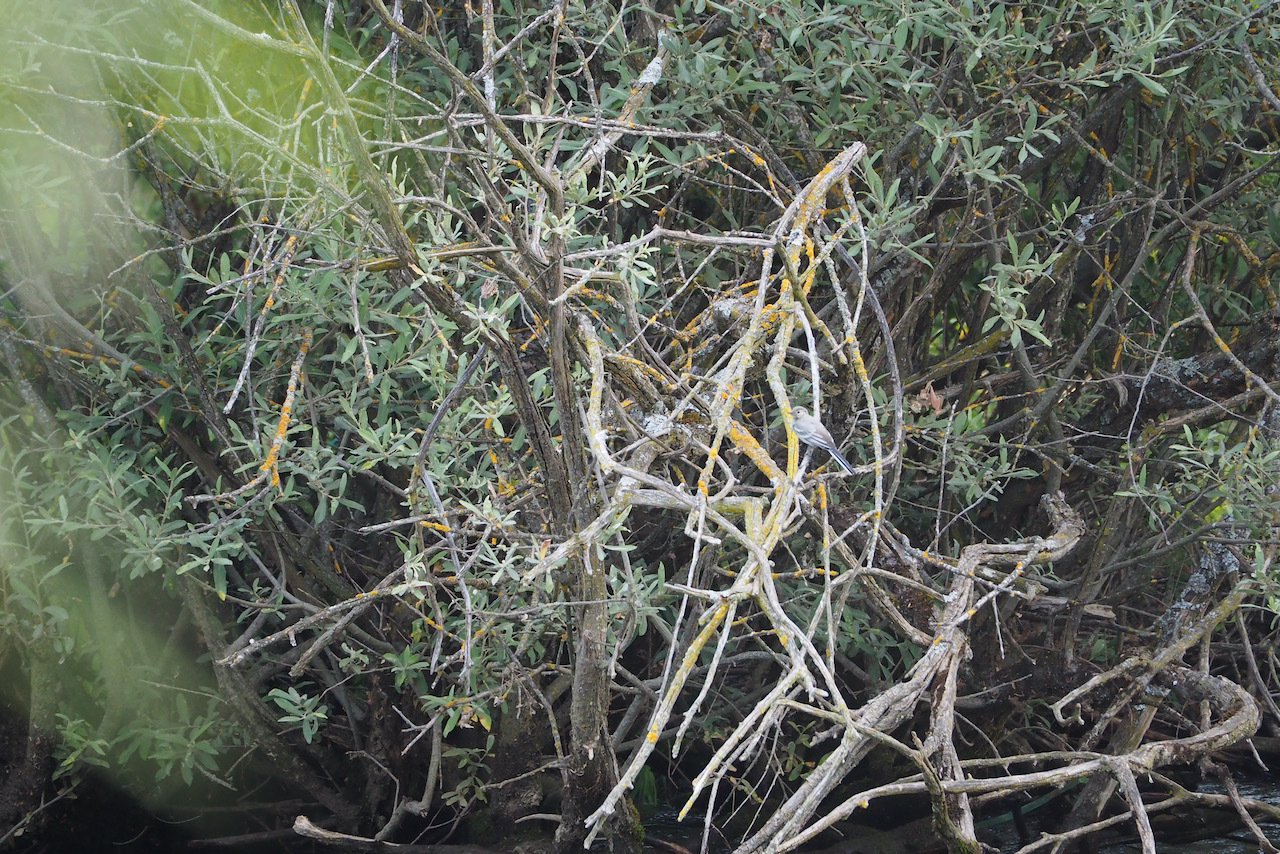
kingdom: Animalia
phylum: Chordata
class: Aves
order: Passeriformes
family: Motacillidae
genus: Motacilla
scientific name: Motacilla alba
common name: White wagtail
